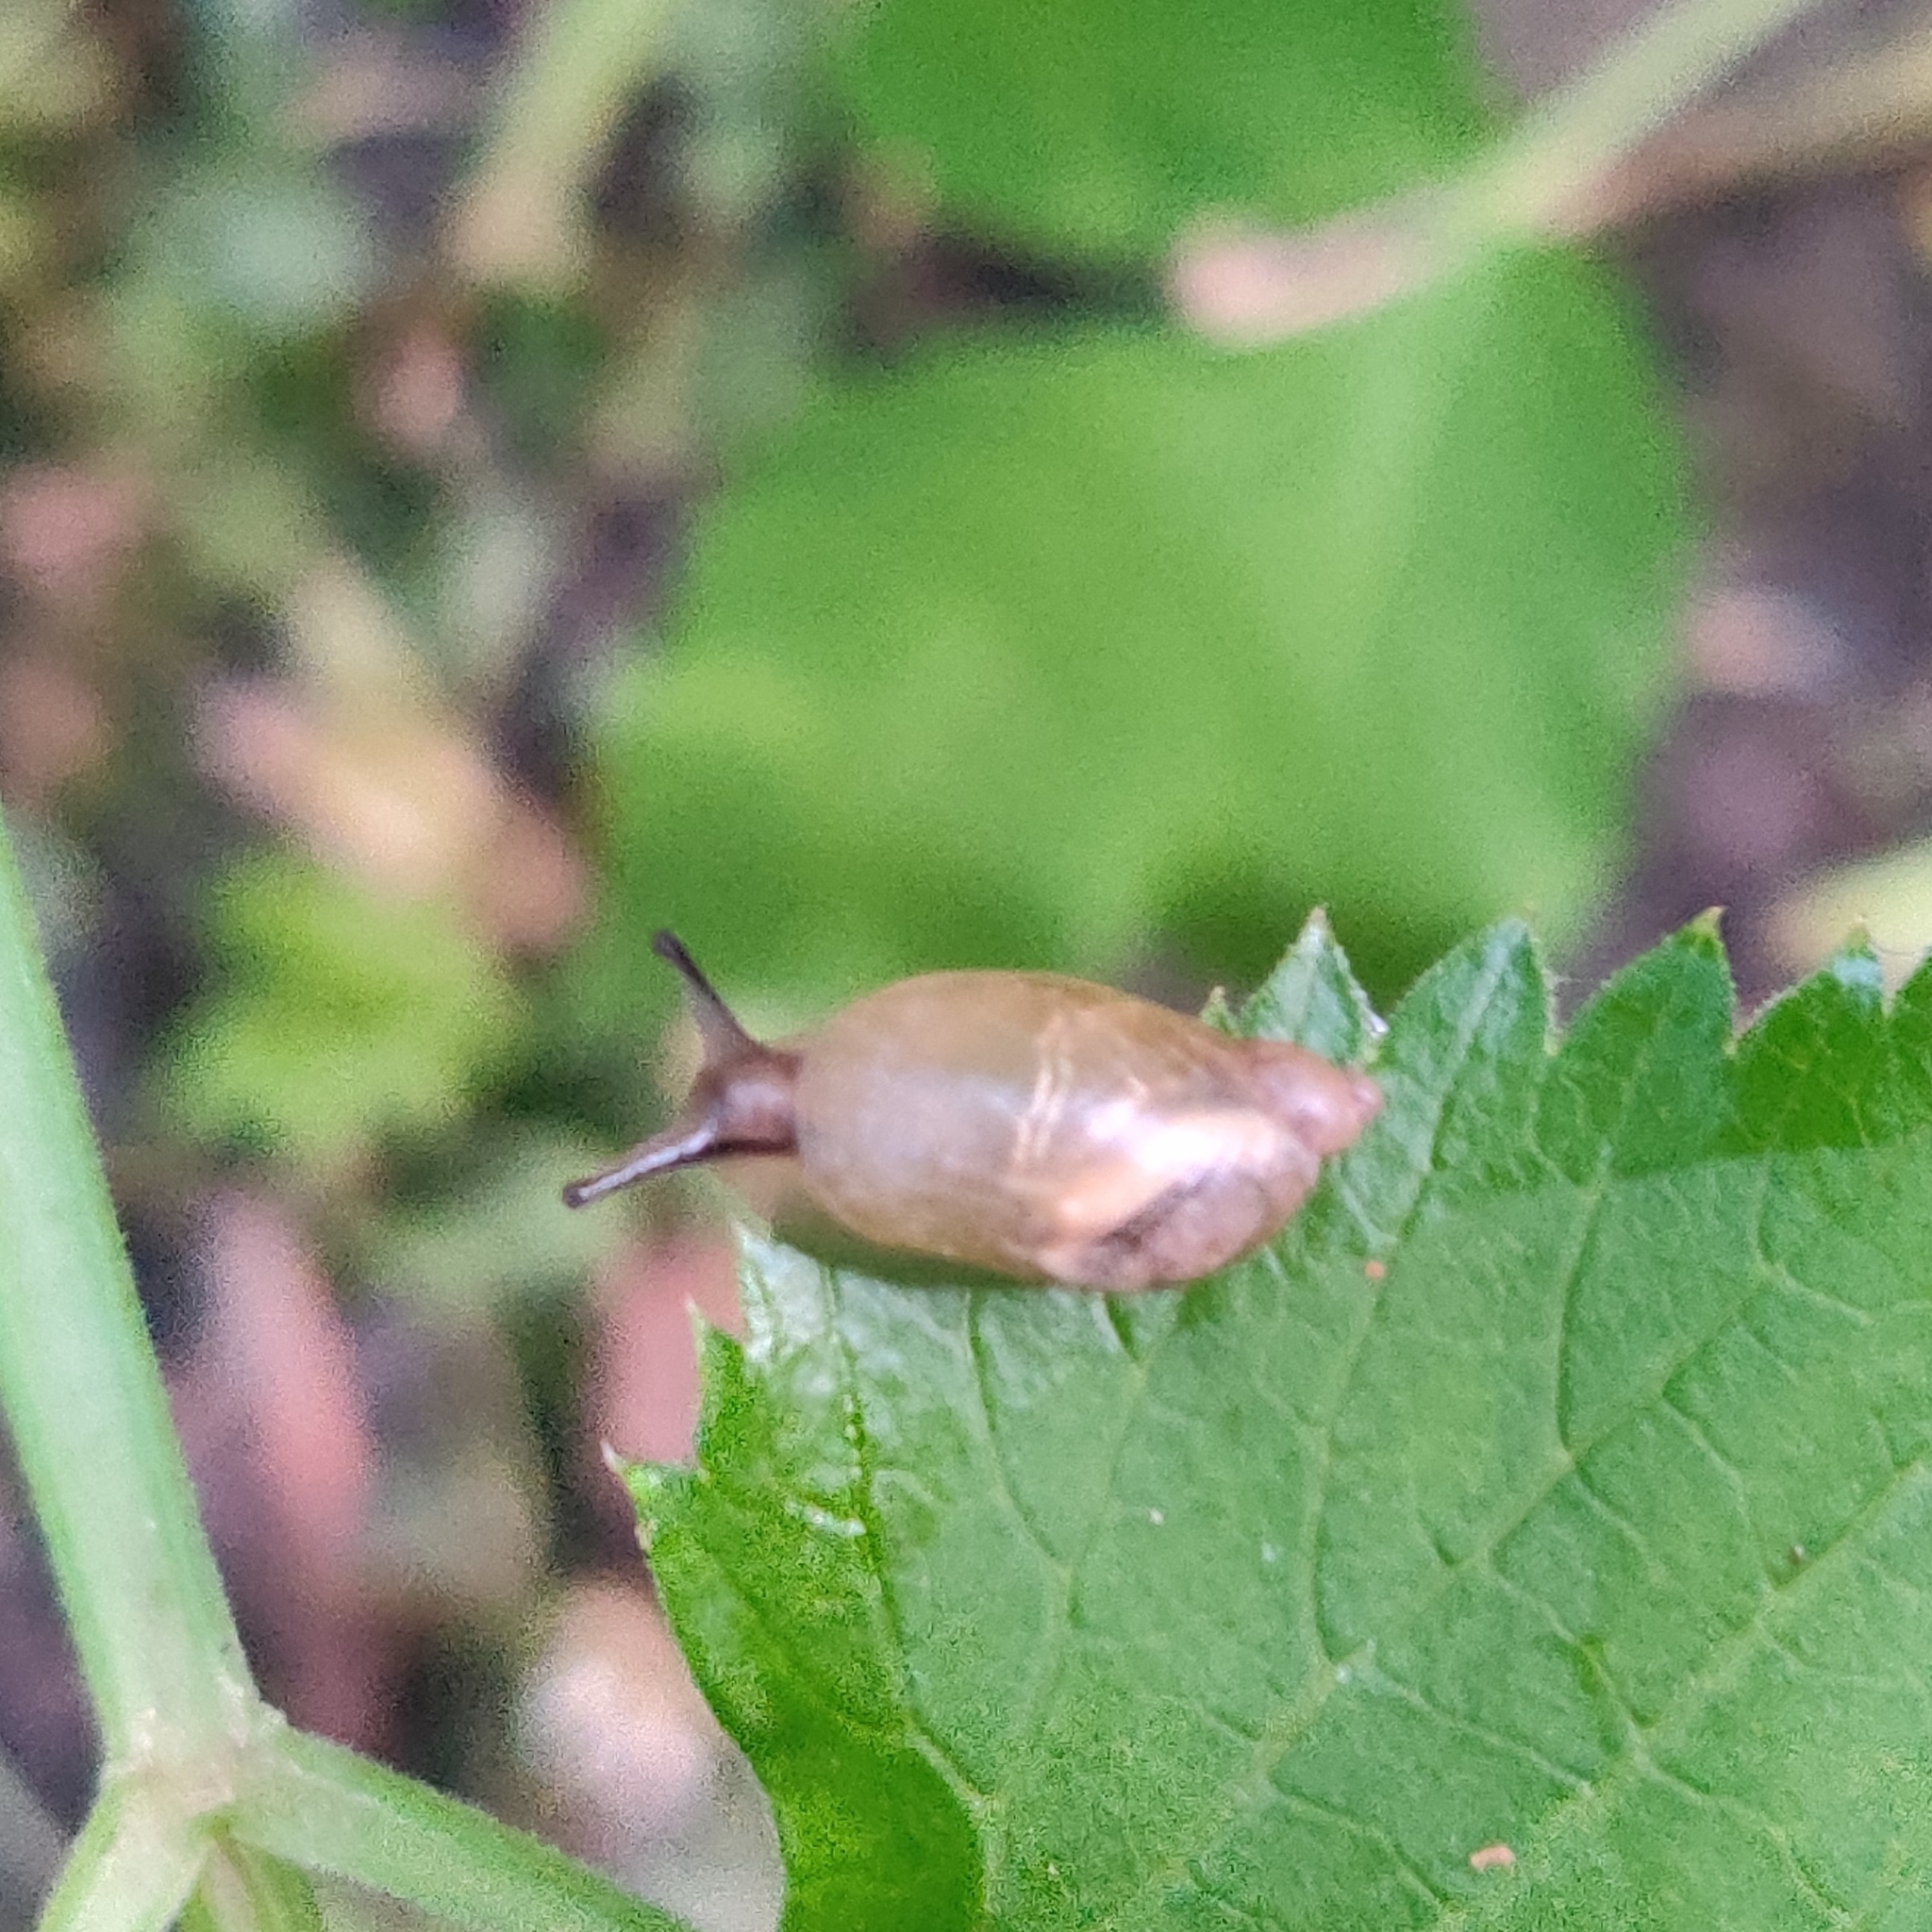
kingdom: Animalia
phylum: Mollusca
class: Gastropoda
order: Stylommatophora
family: Succineidae
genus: Succinea
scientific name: Succinea putris
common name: European ambersnail
